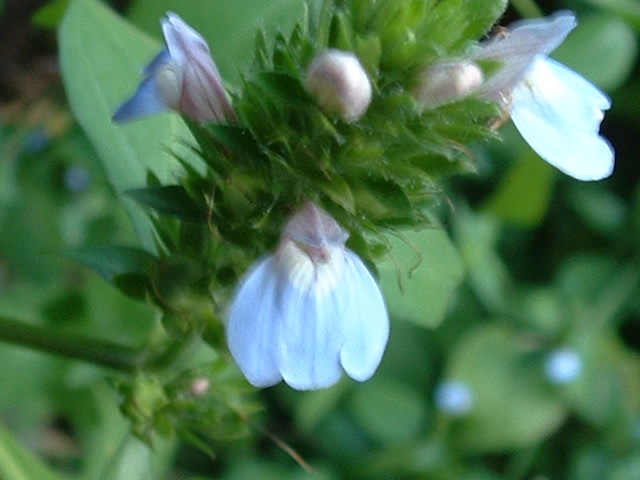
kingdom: Plantae
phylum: Tracheophyta
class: Magnoliopsida
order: Lamiales
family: Acanthaceae
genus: Justicia
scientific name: Justicia petiolaris
